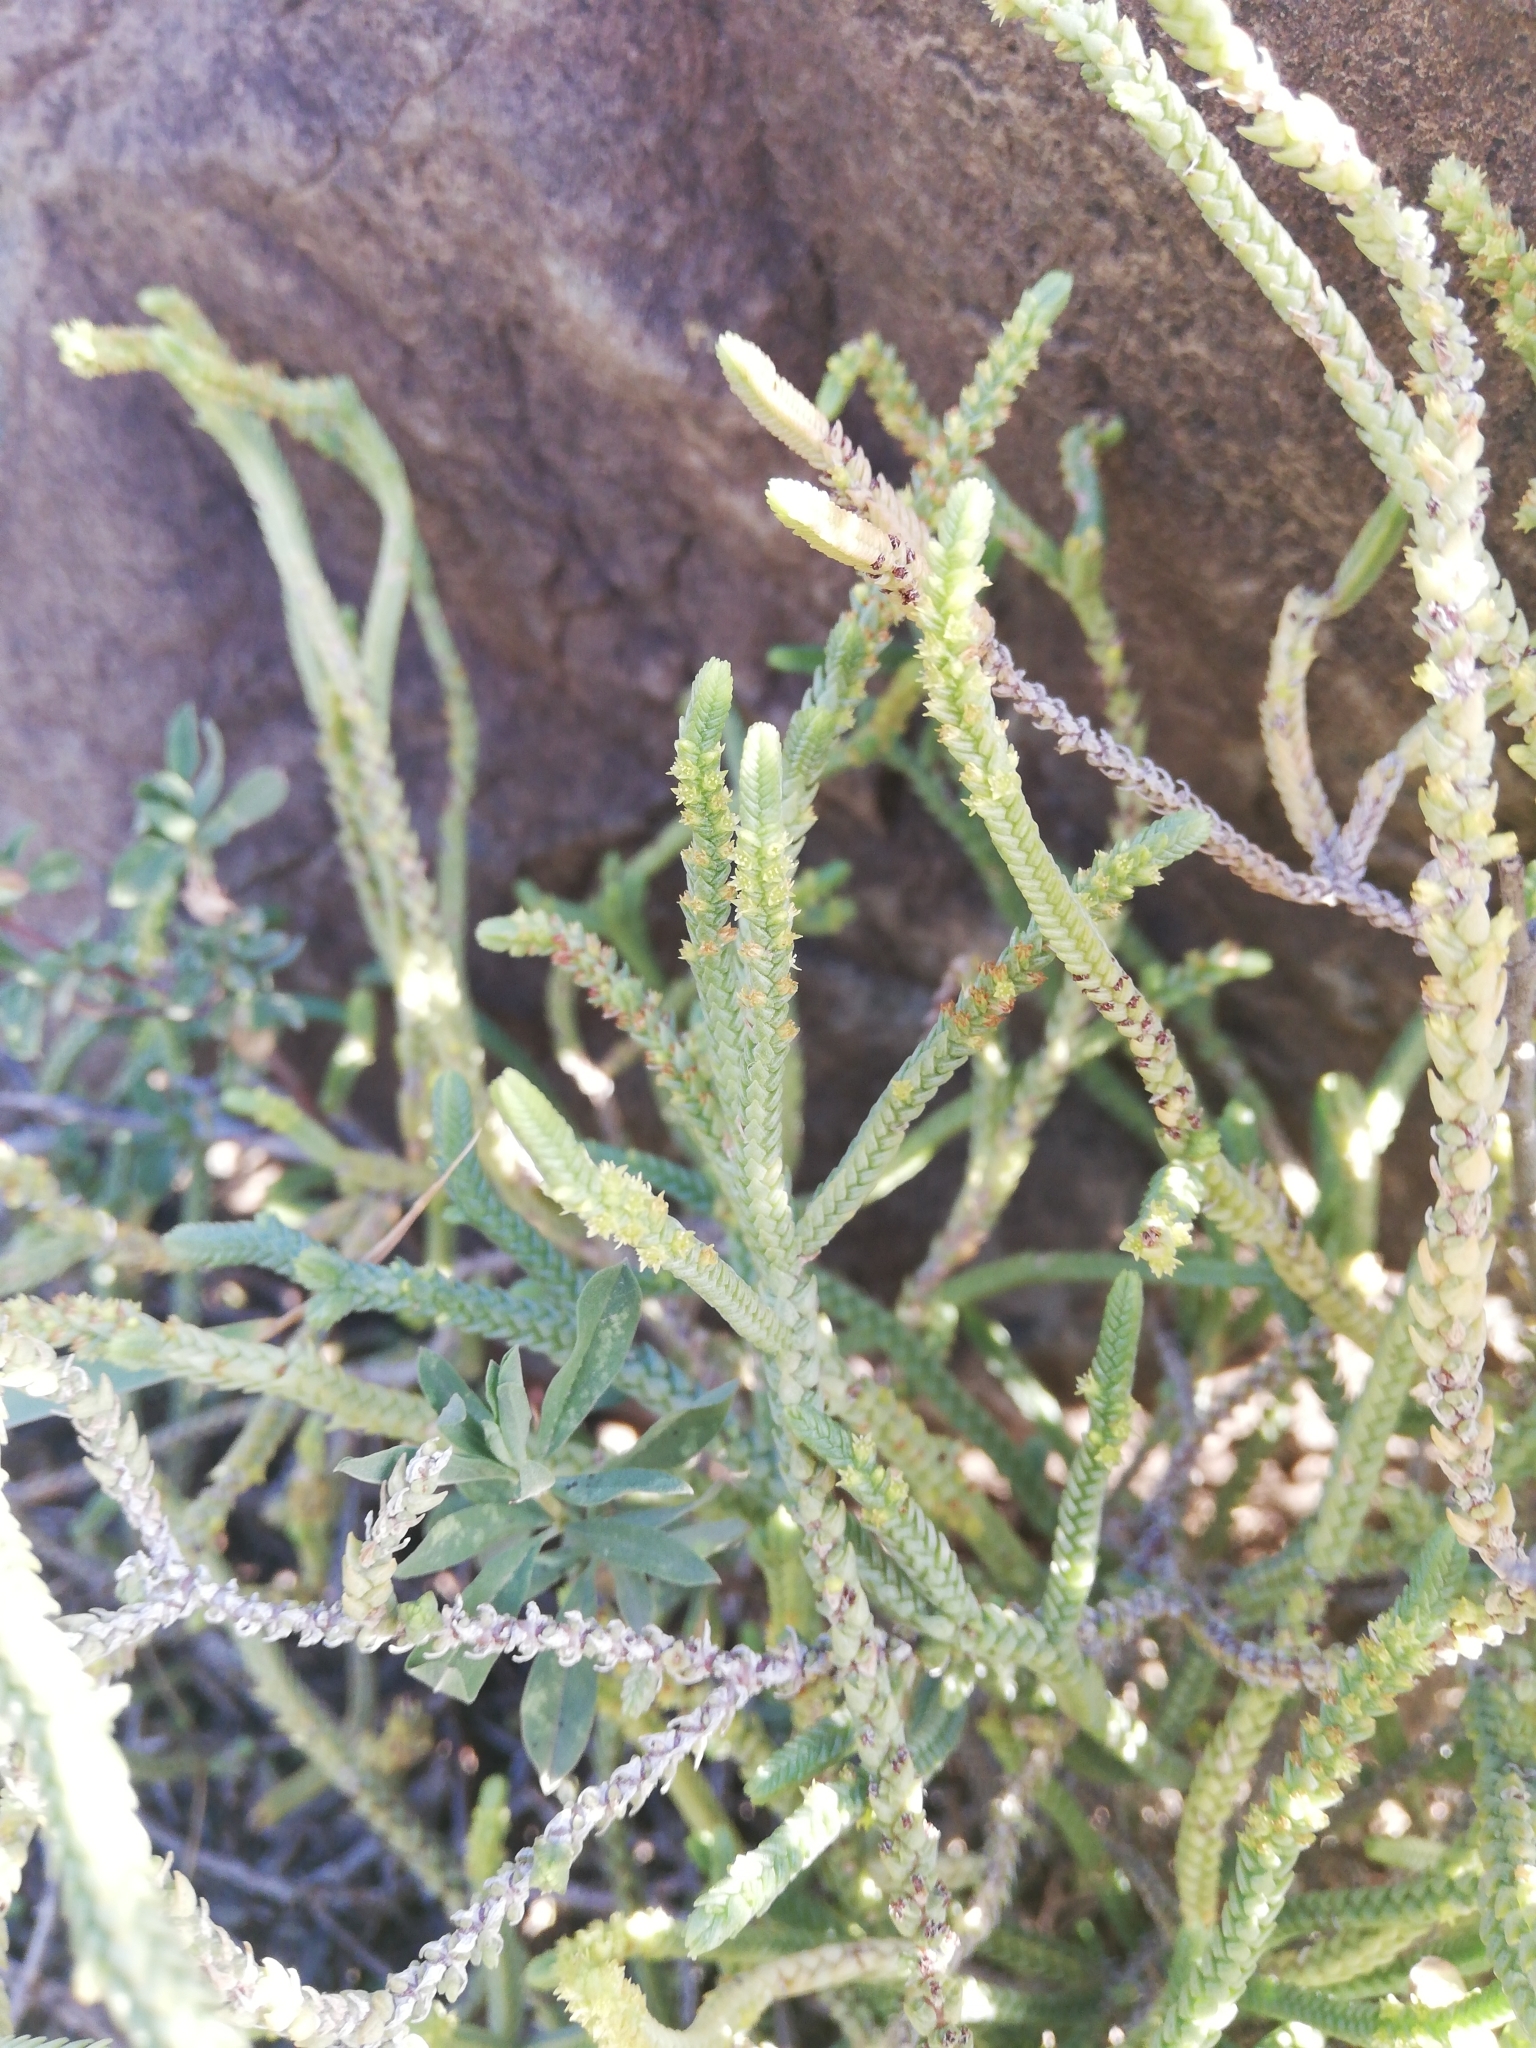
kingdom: Plantae
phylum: Tracheophyta
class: Magnoliopsida
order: Saxifragales
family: Crassulaceae
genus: Crassula
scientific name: Crassula muscosa
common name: Toy-cypress
